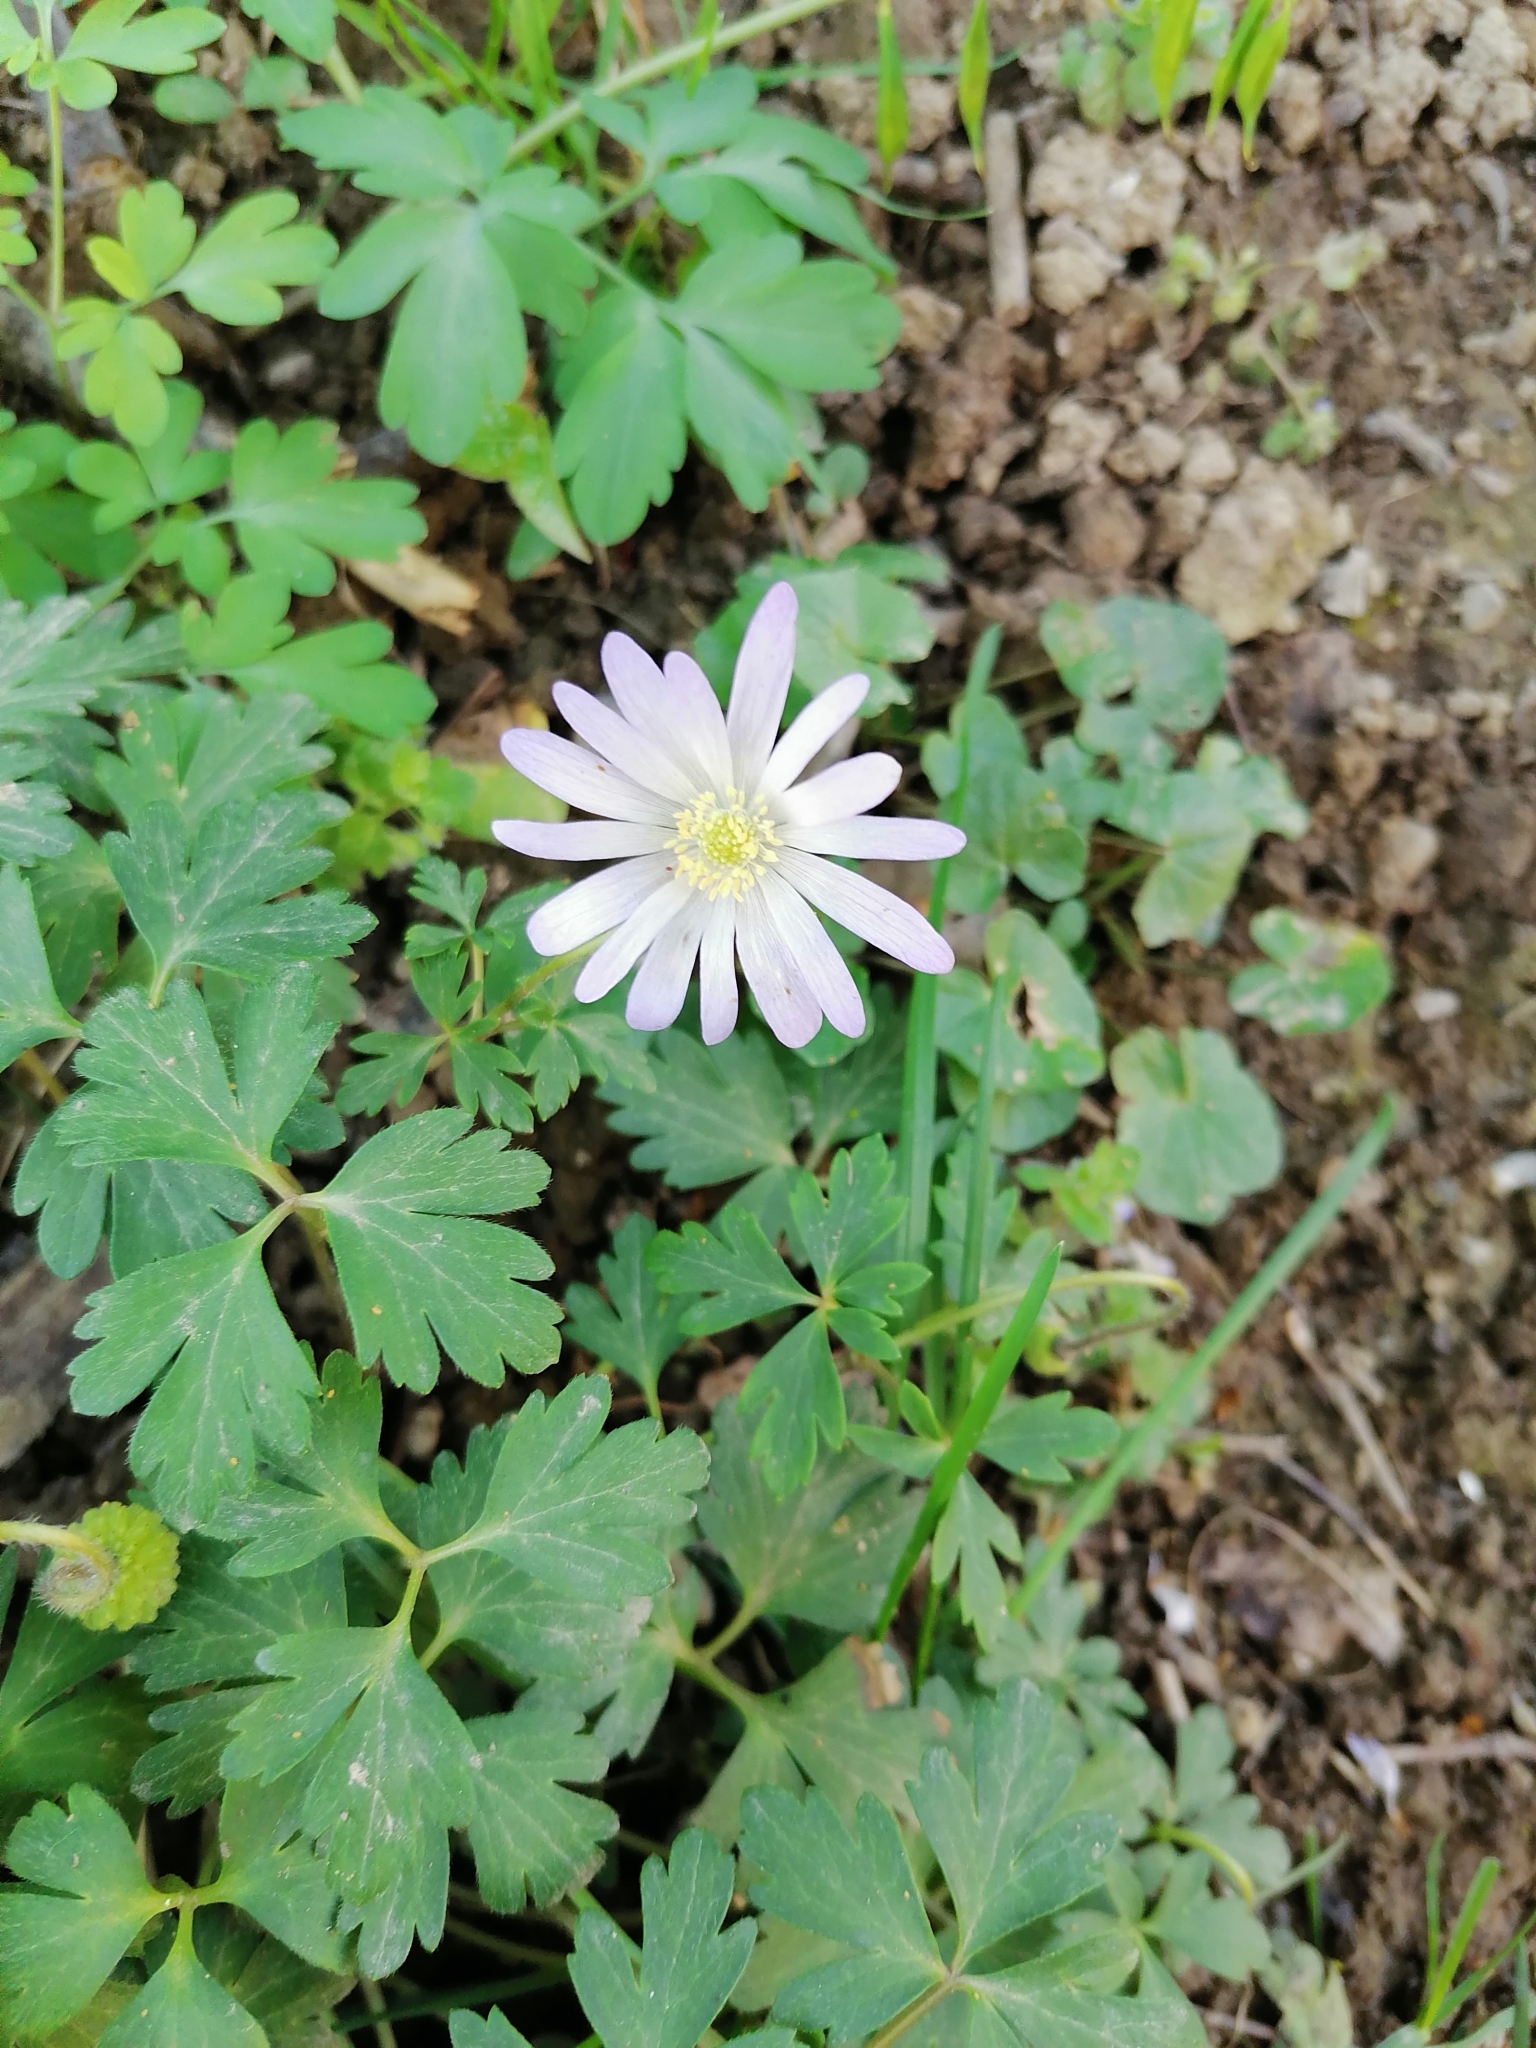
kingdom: Plantae
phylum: Tracheophyta
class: Magnoliopsida
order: Ranunculales
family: Ranunculaceae
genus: Anemone
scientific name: Anemone blanda
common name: Balkan anemone
